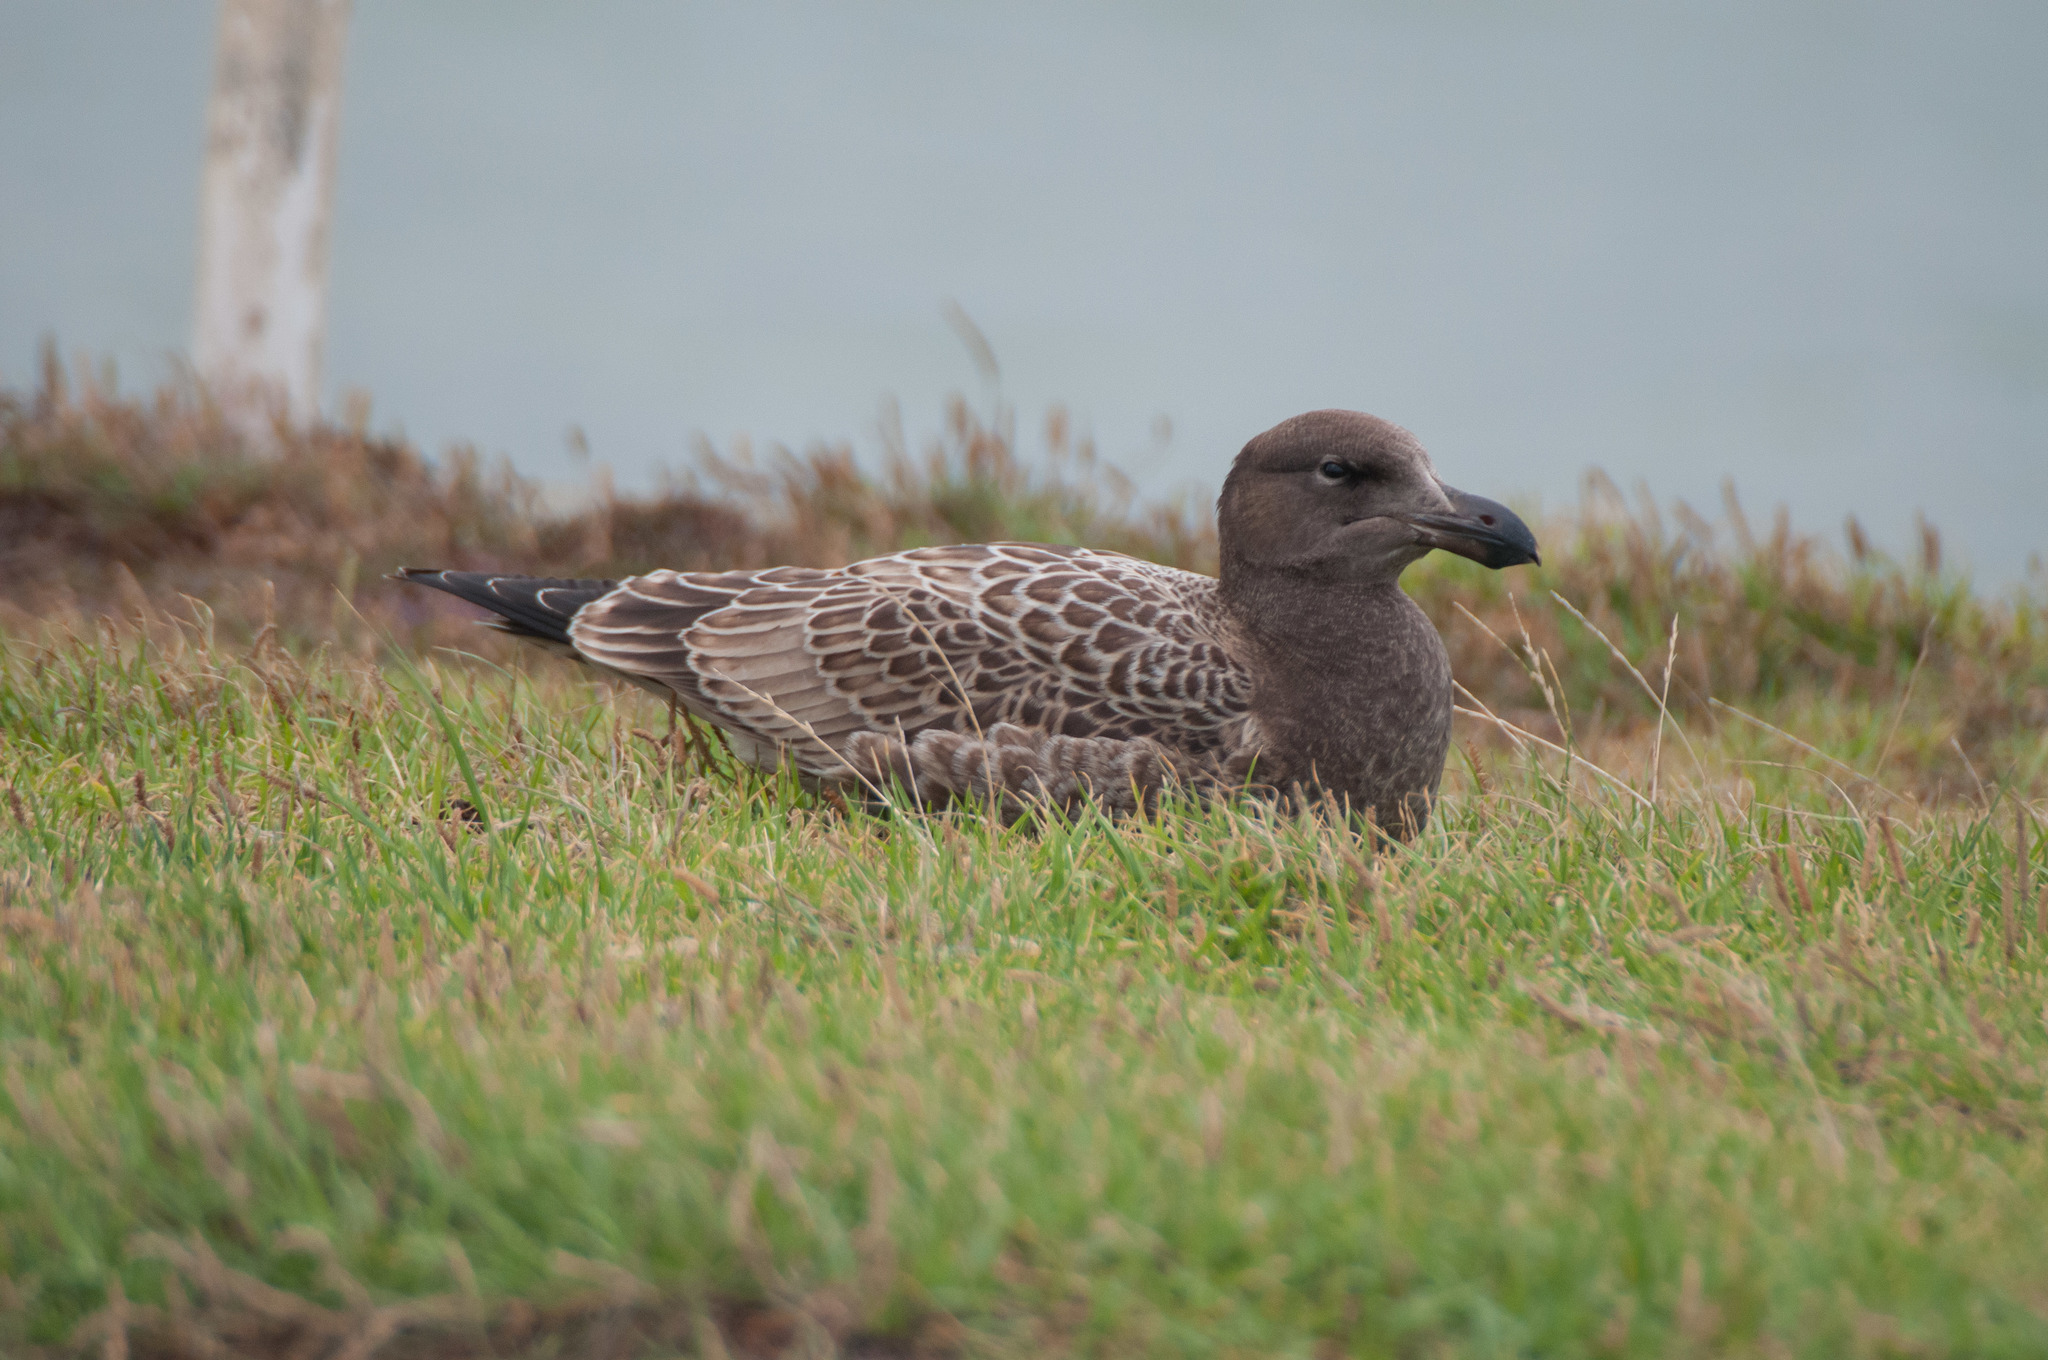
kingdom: Animalia
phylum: Chordata
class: Aves
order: Charadriiformes
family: Laridae
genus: Larus
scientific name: Larus pacificus
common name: Pacific gull
